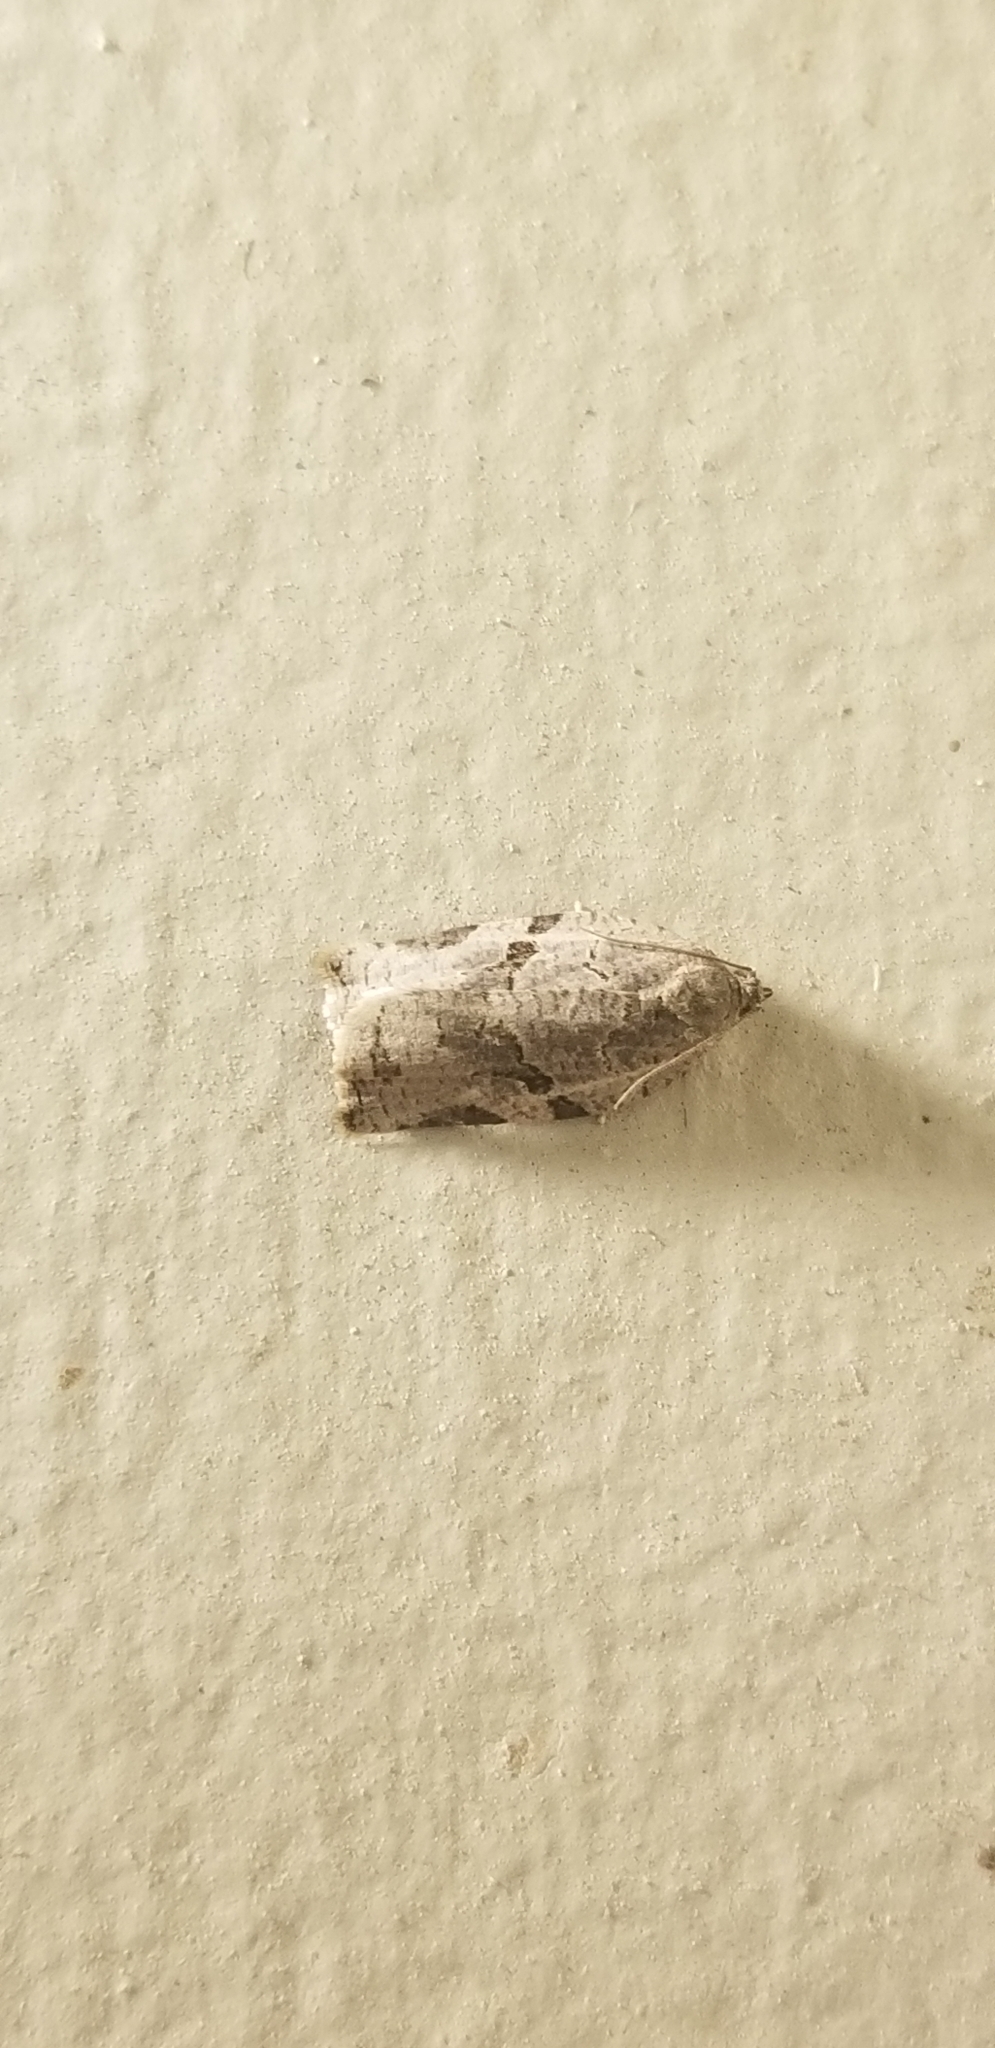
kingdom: Animalia
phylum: Arthropoda
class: Insecta
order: Lepidoptera
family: Tortricidae
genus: Archips
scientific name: Archips grisea
